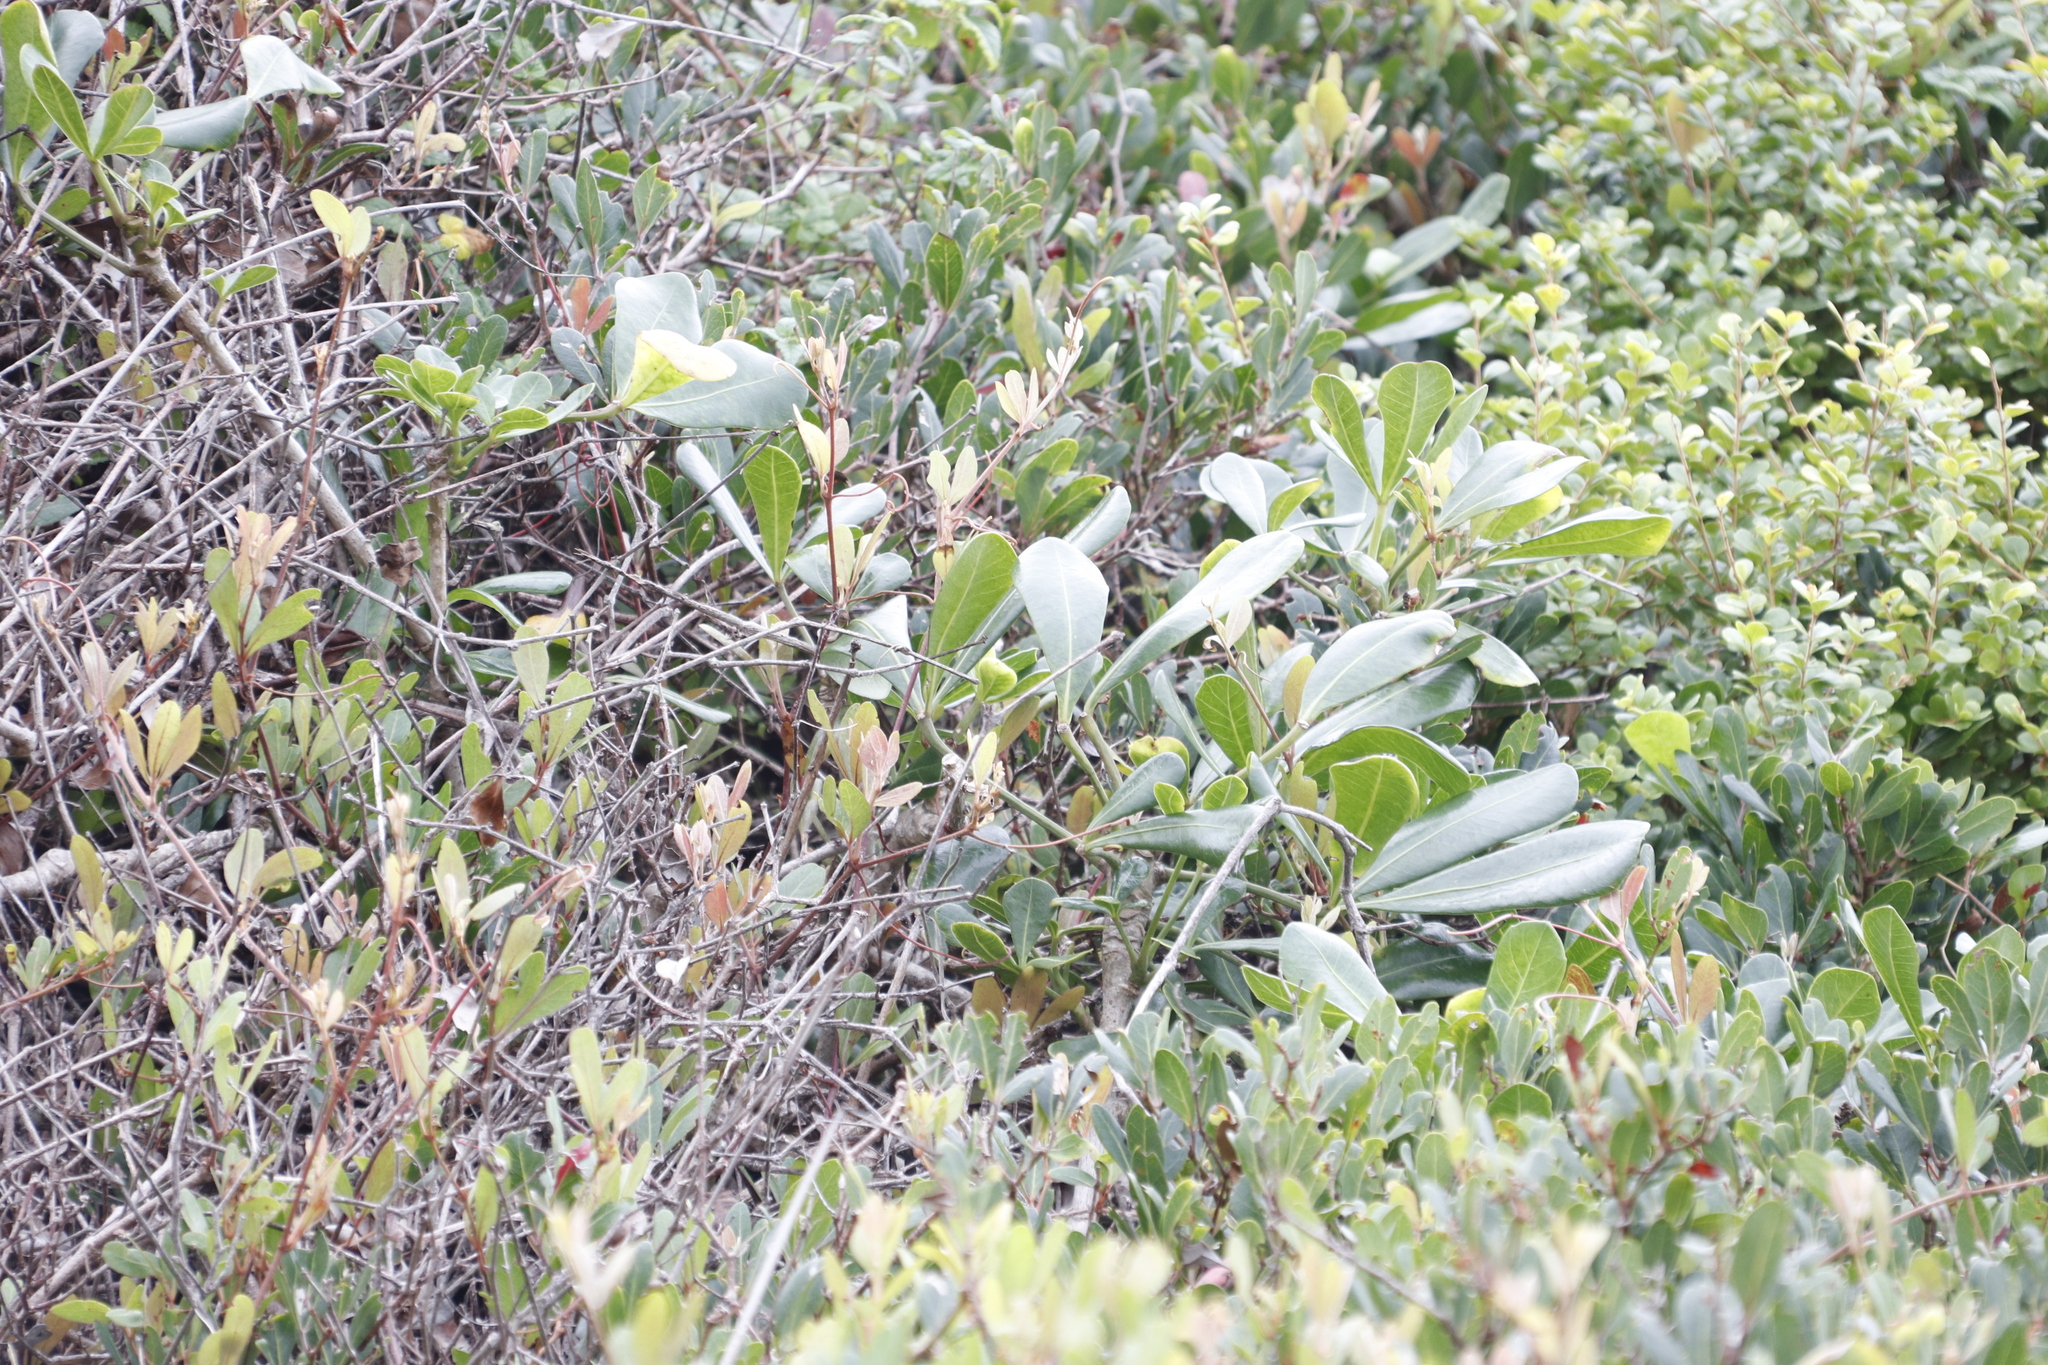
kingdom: Plantae
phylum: Tracheophyta
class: Magnoliopsida
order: Apiales
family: Araliaceae
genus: Cussonia
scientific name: Cussonia thyrsiflora
